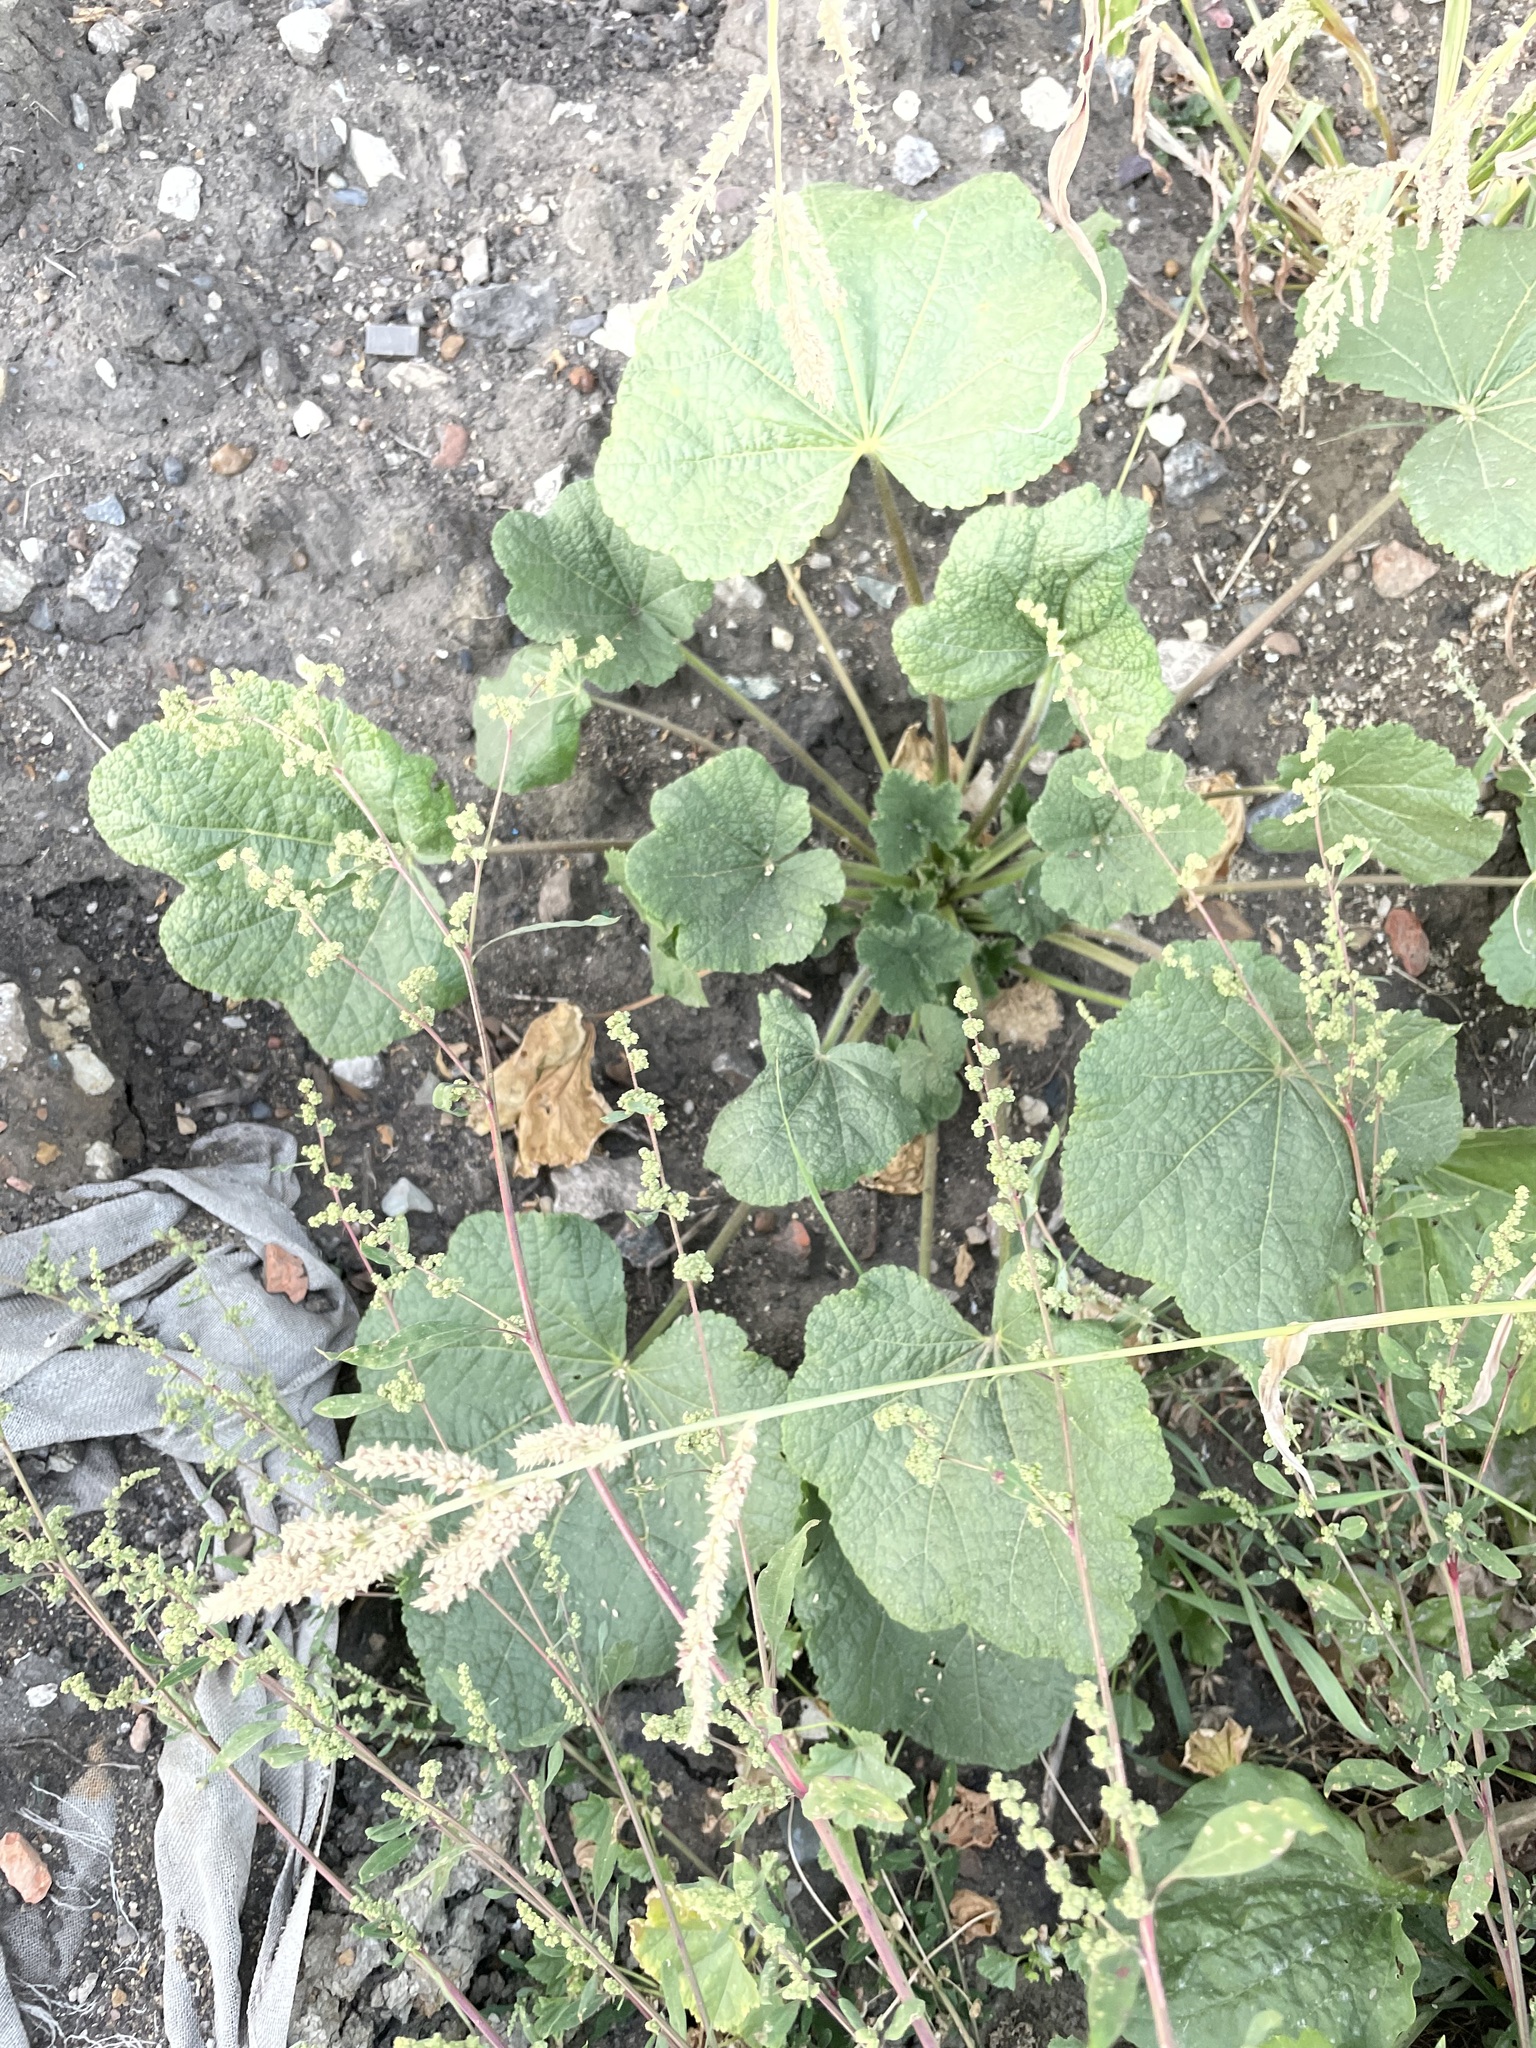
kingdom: Plantae
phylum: Tracheophyta
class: Magnoliopsida
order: Malvales
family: Malvaceae
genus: Alcea
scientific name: Alcea rosea
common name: Hollyhock
